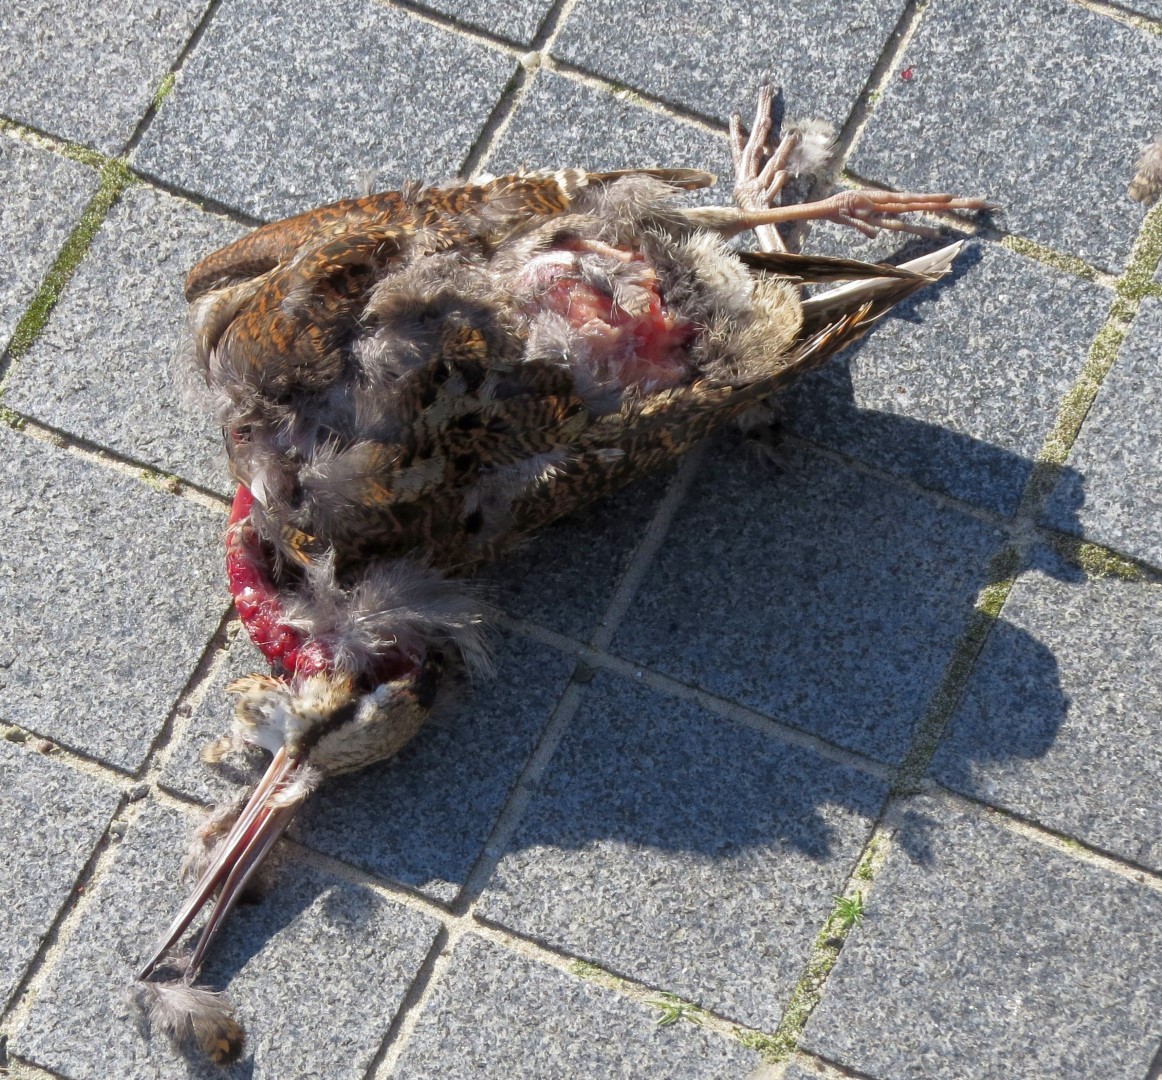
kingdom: Animalia
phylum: Chordata
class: Aves
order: Charadriiformes
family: Scolopacidae
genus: Scolopax
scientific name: Scolopax rusticola
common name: Eurasian woodcock
